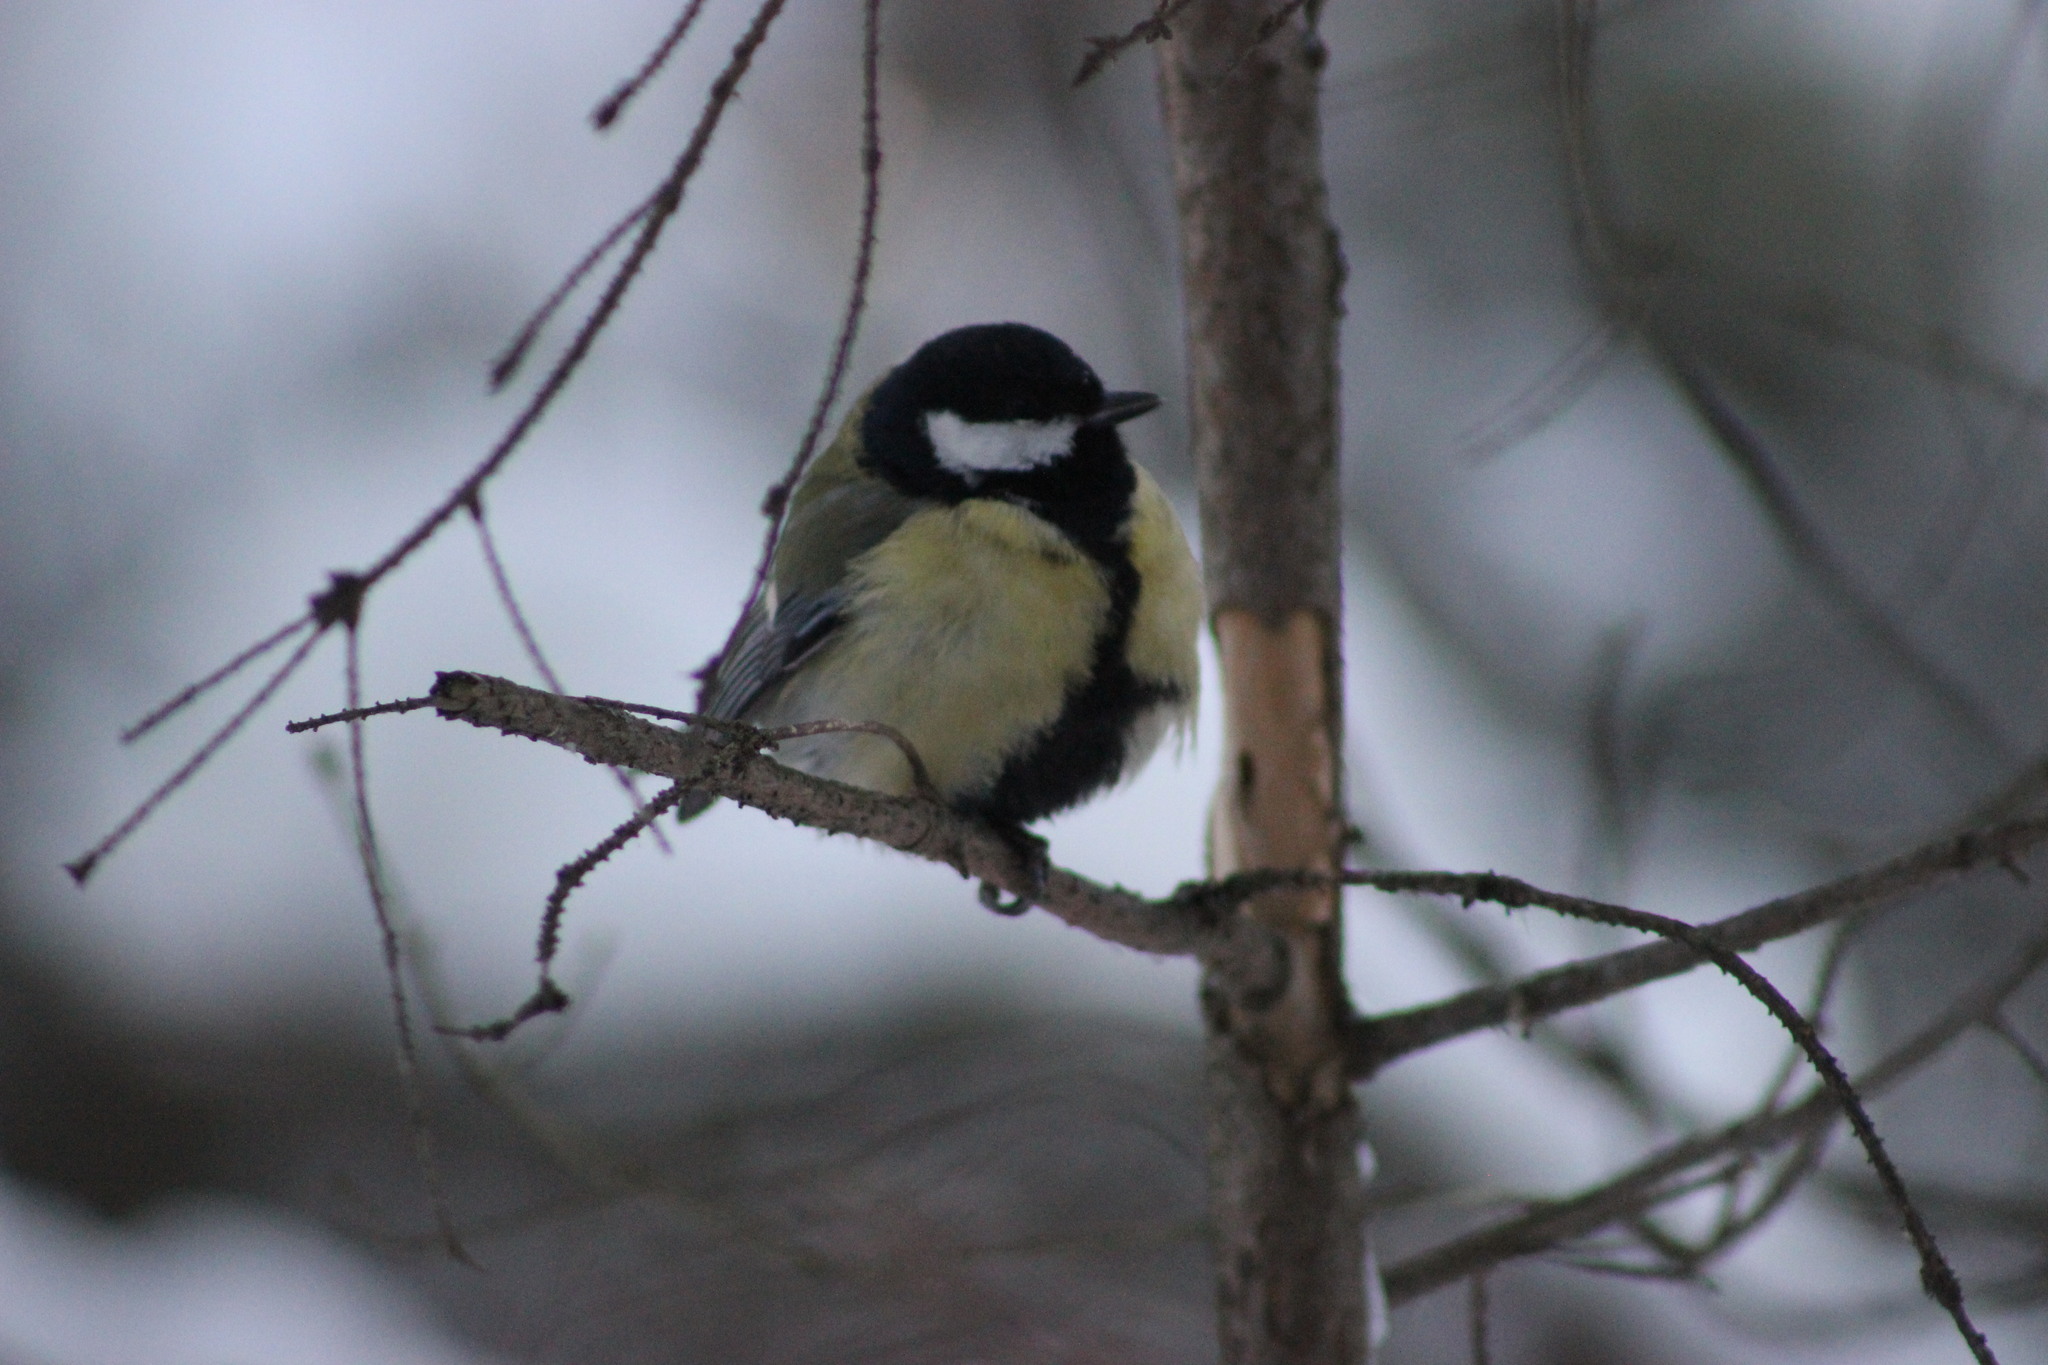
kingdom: Animalia
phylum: Chordata
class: Aves
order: Passeriformes
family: Paridae
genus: Parus
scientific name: Parus major
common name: Great tit
